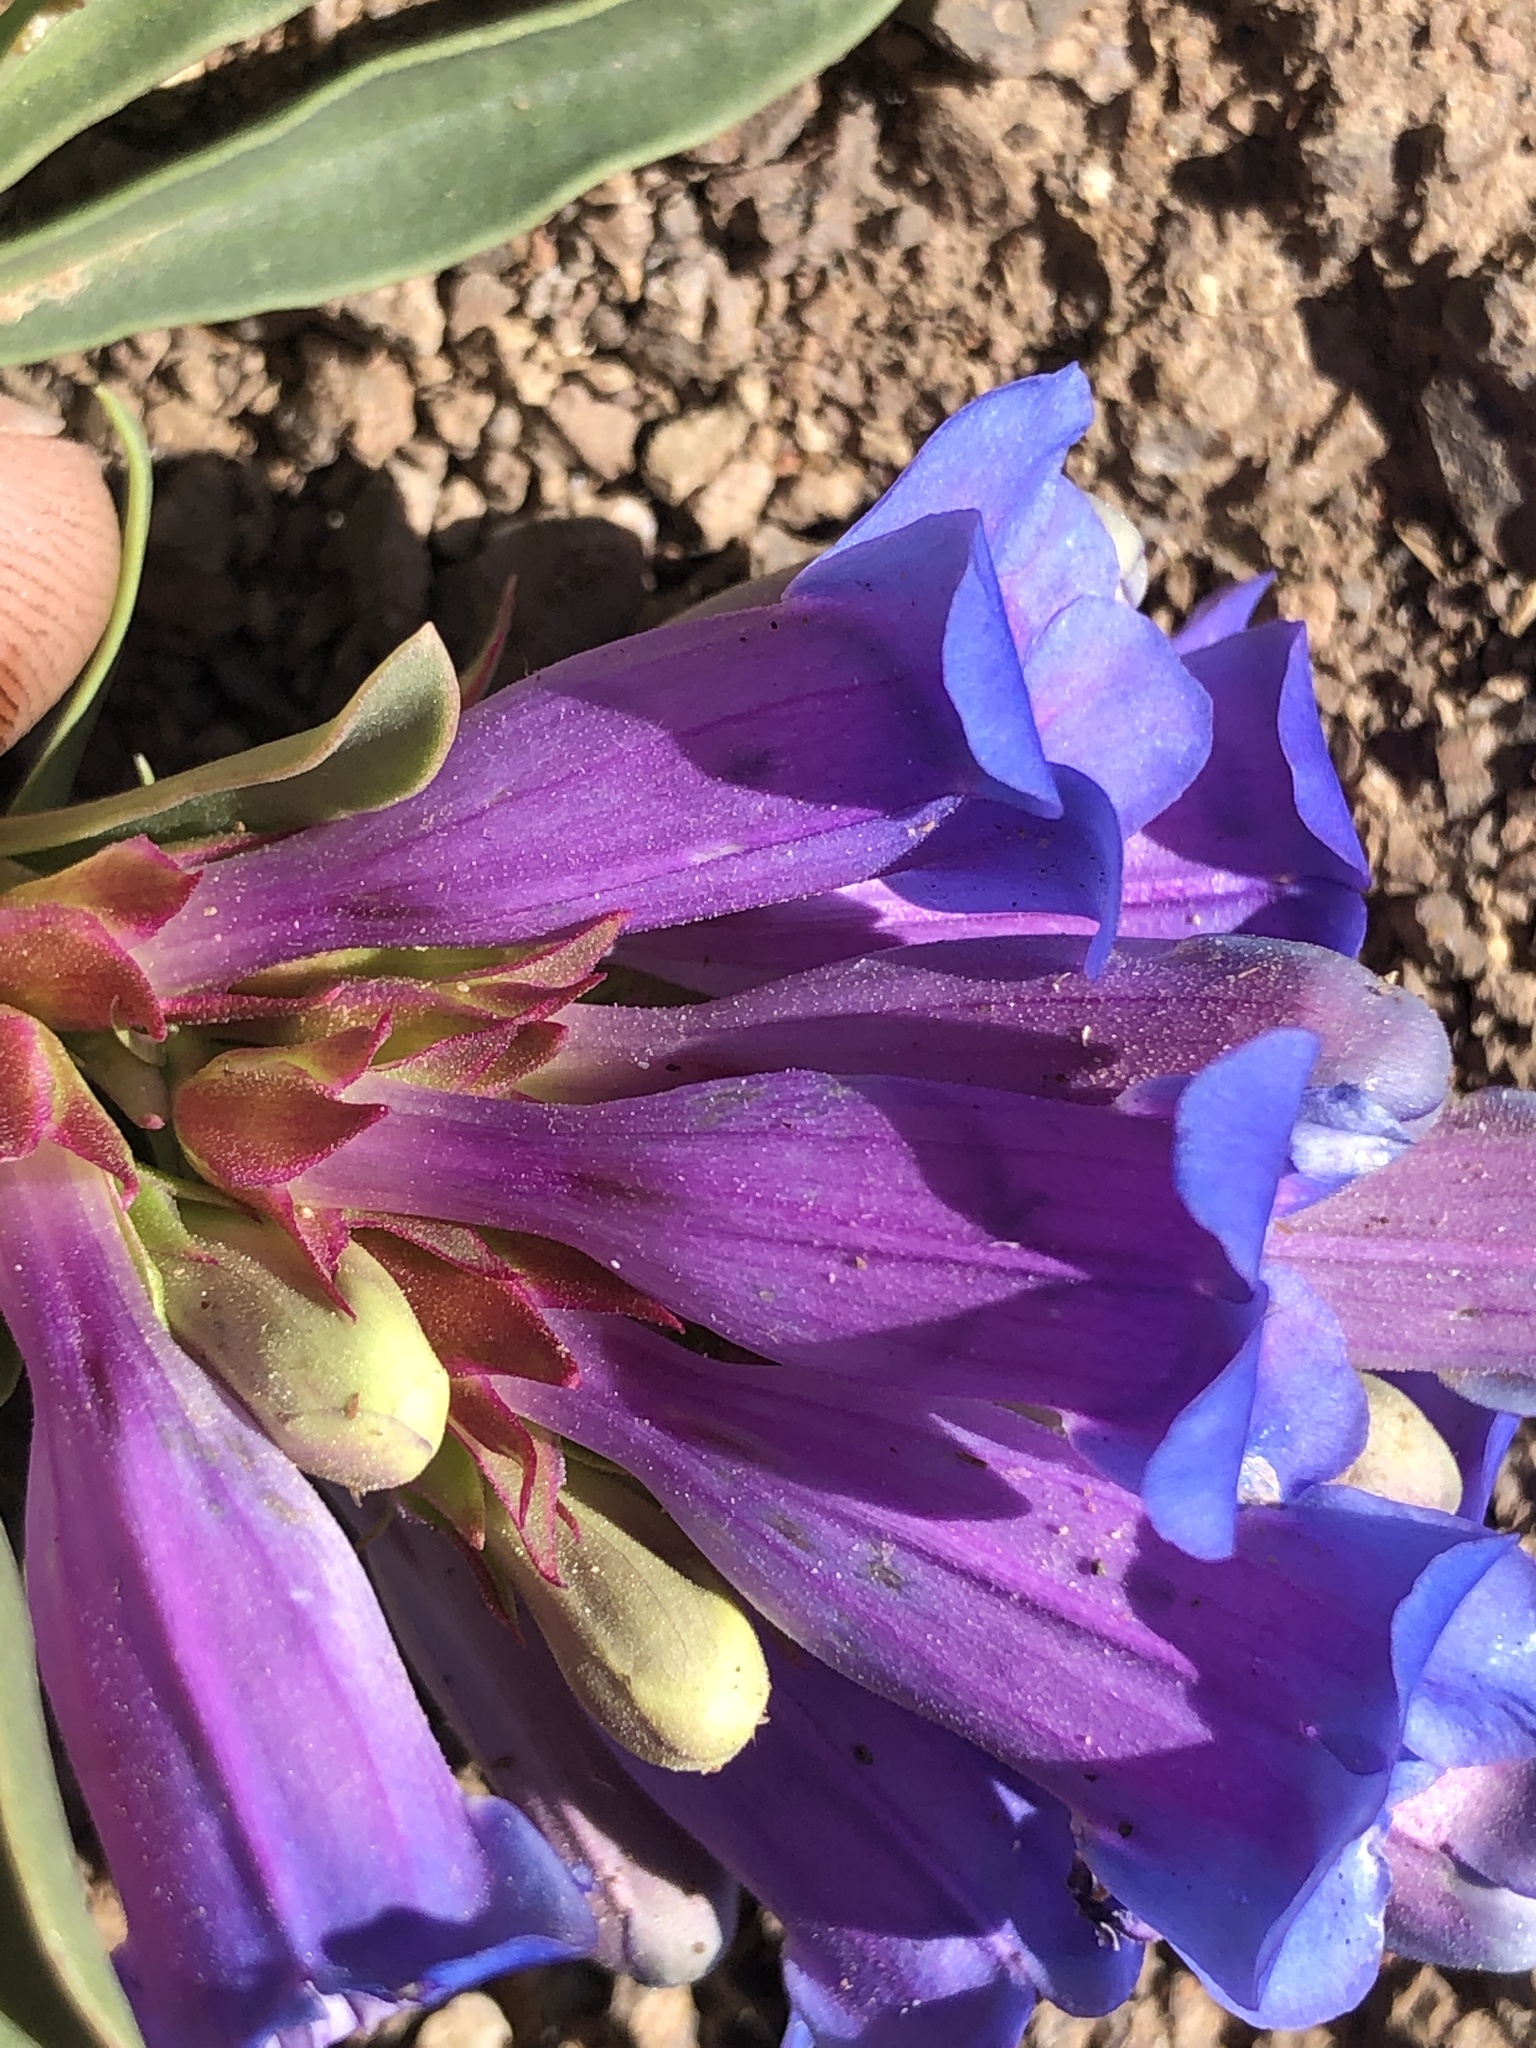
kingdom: Plantae
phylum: Tracheophyta
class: Magnoliopsida
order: Lamiales
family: Plantaginaceae
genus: Penstemon
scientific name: Penstemon speciosus
